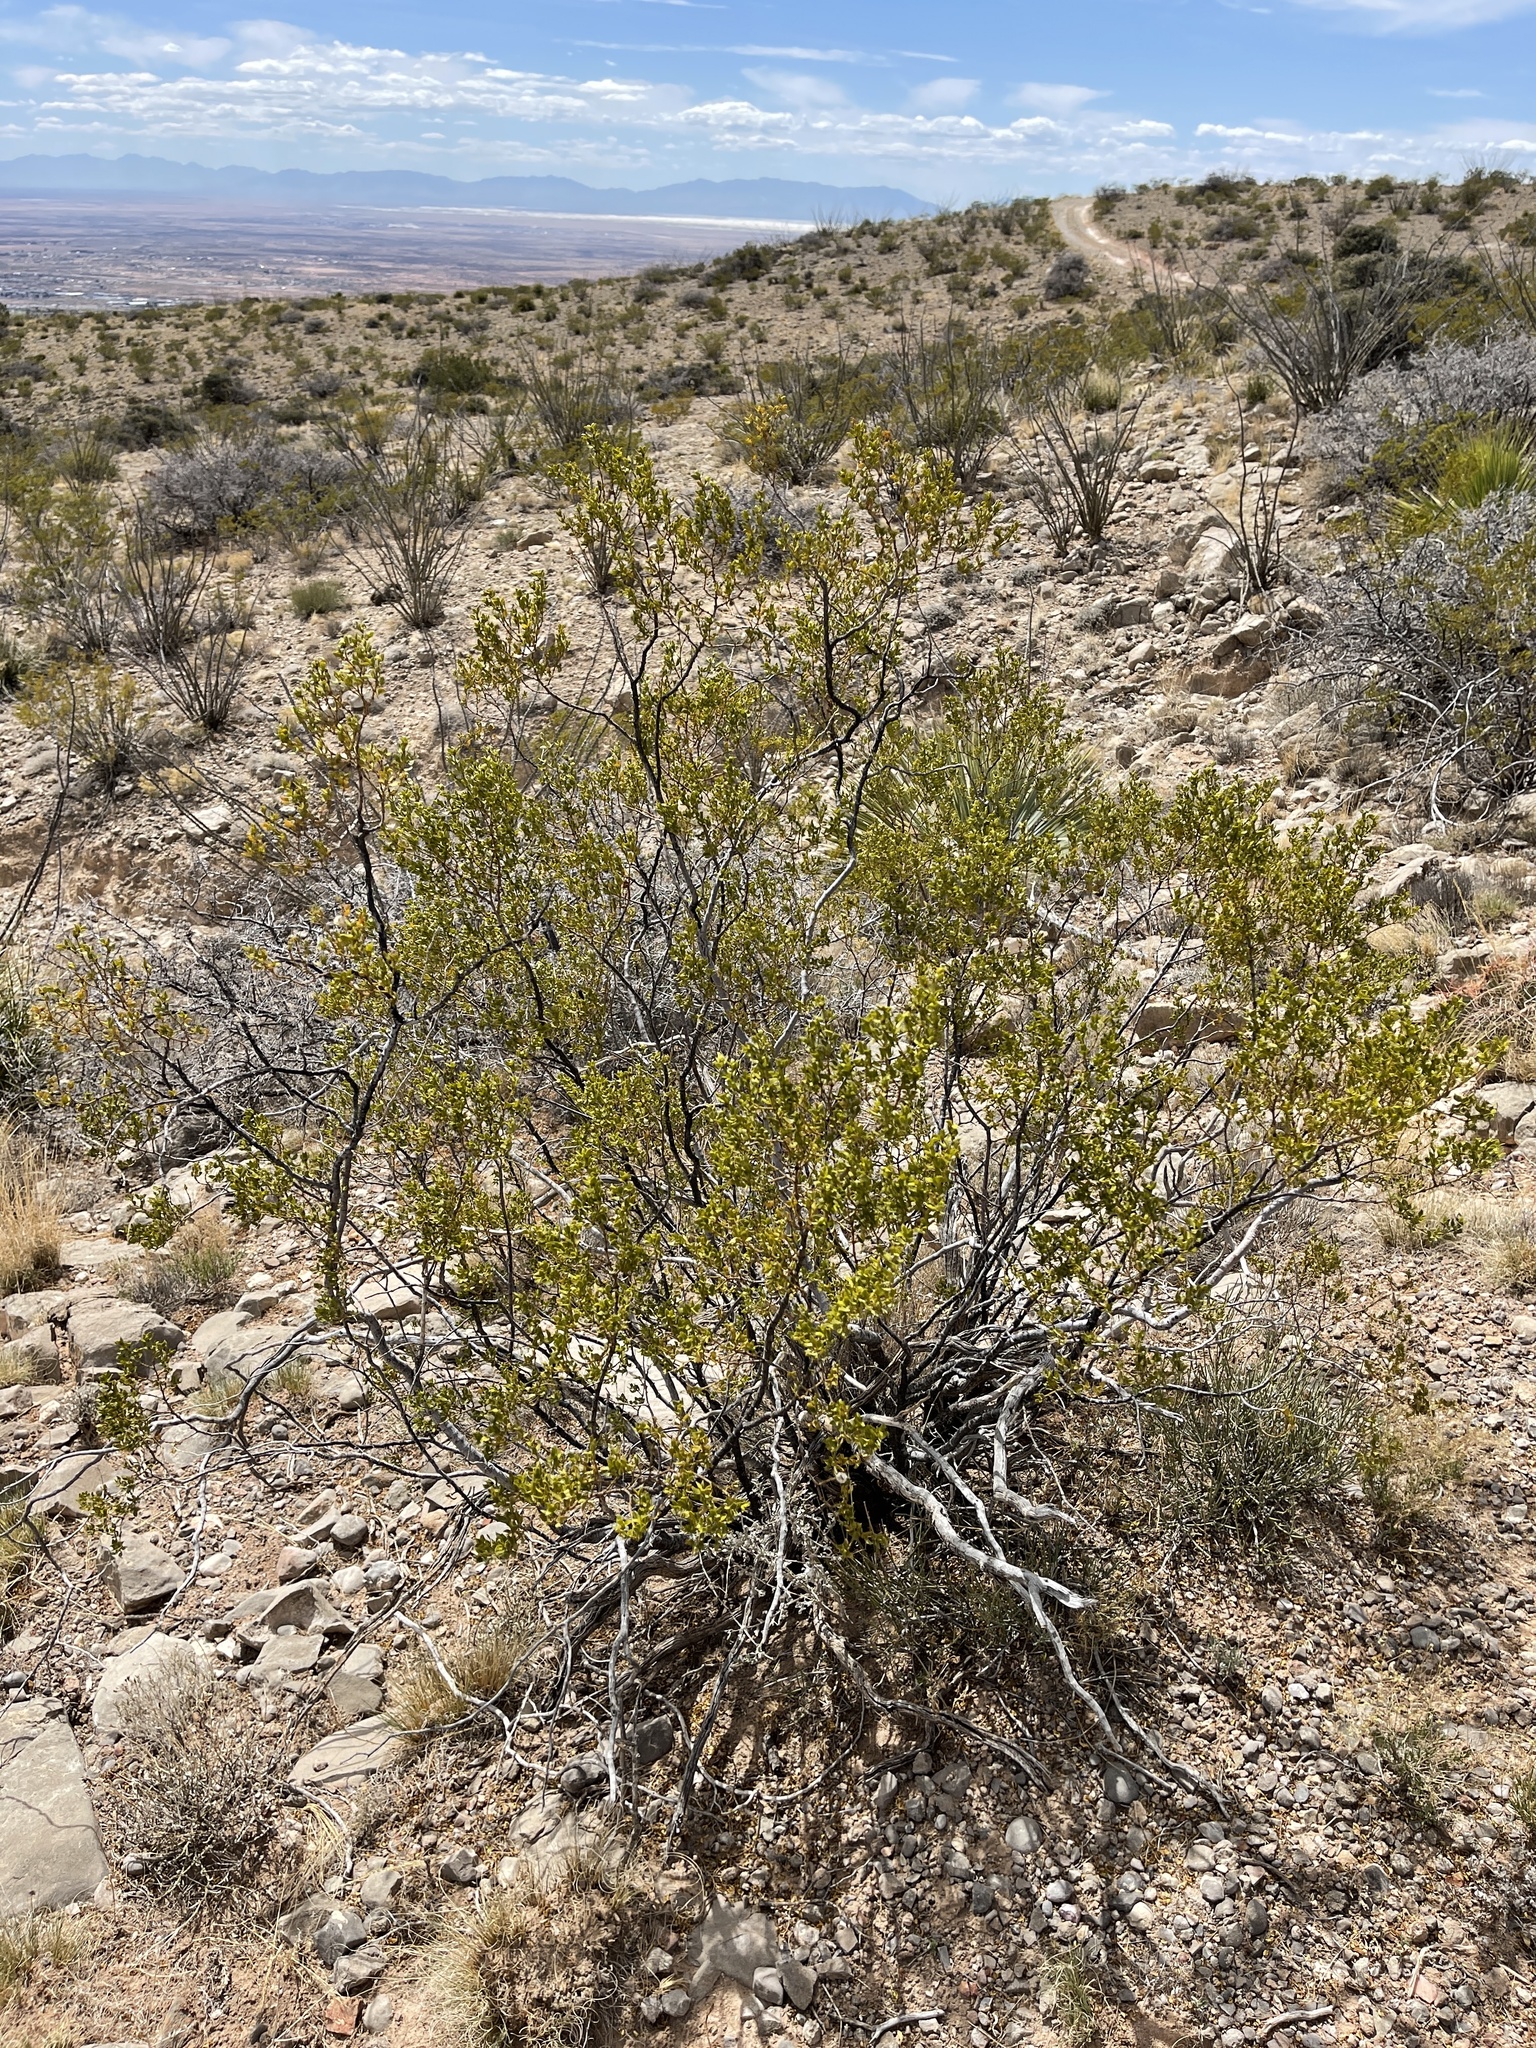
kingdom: Plantae
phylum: Tracheophyta
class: Magnoliopsida
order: Zygophyllales
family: Zygophyllaceae
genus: Larrea
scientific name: Larrea tridentata
